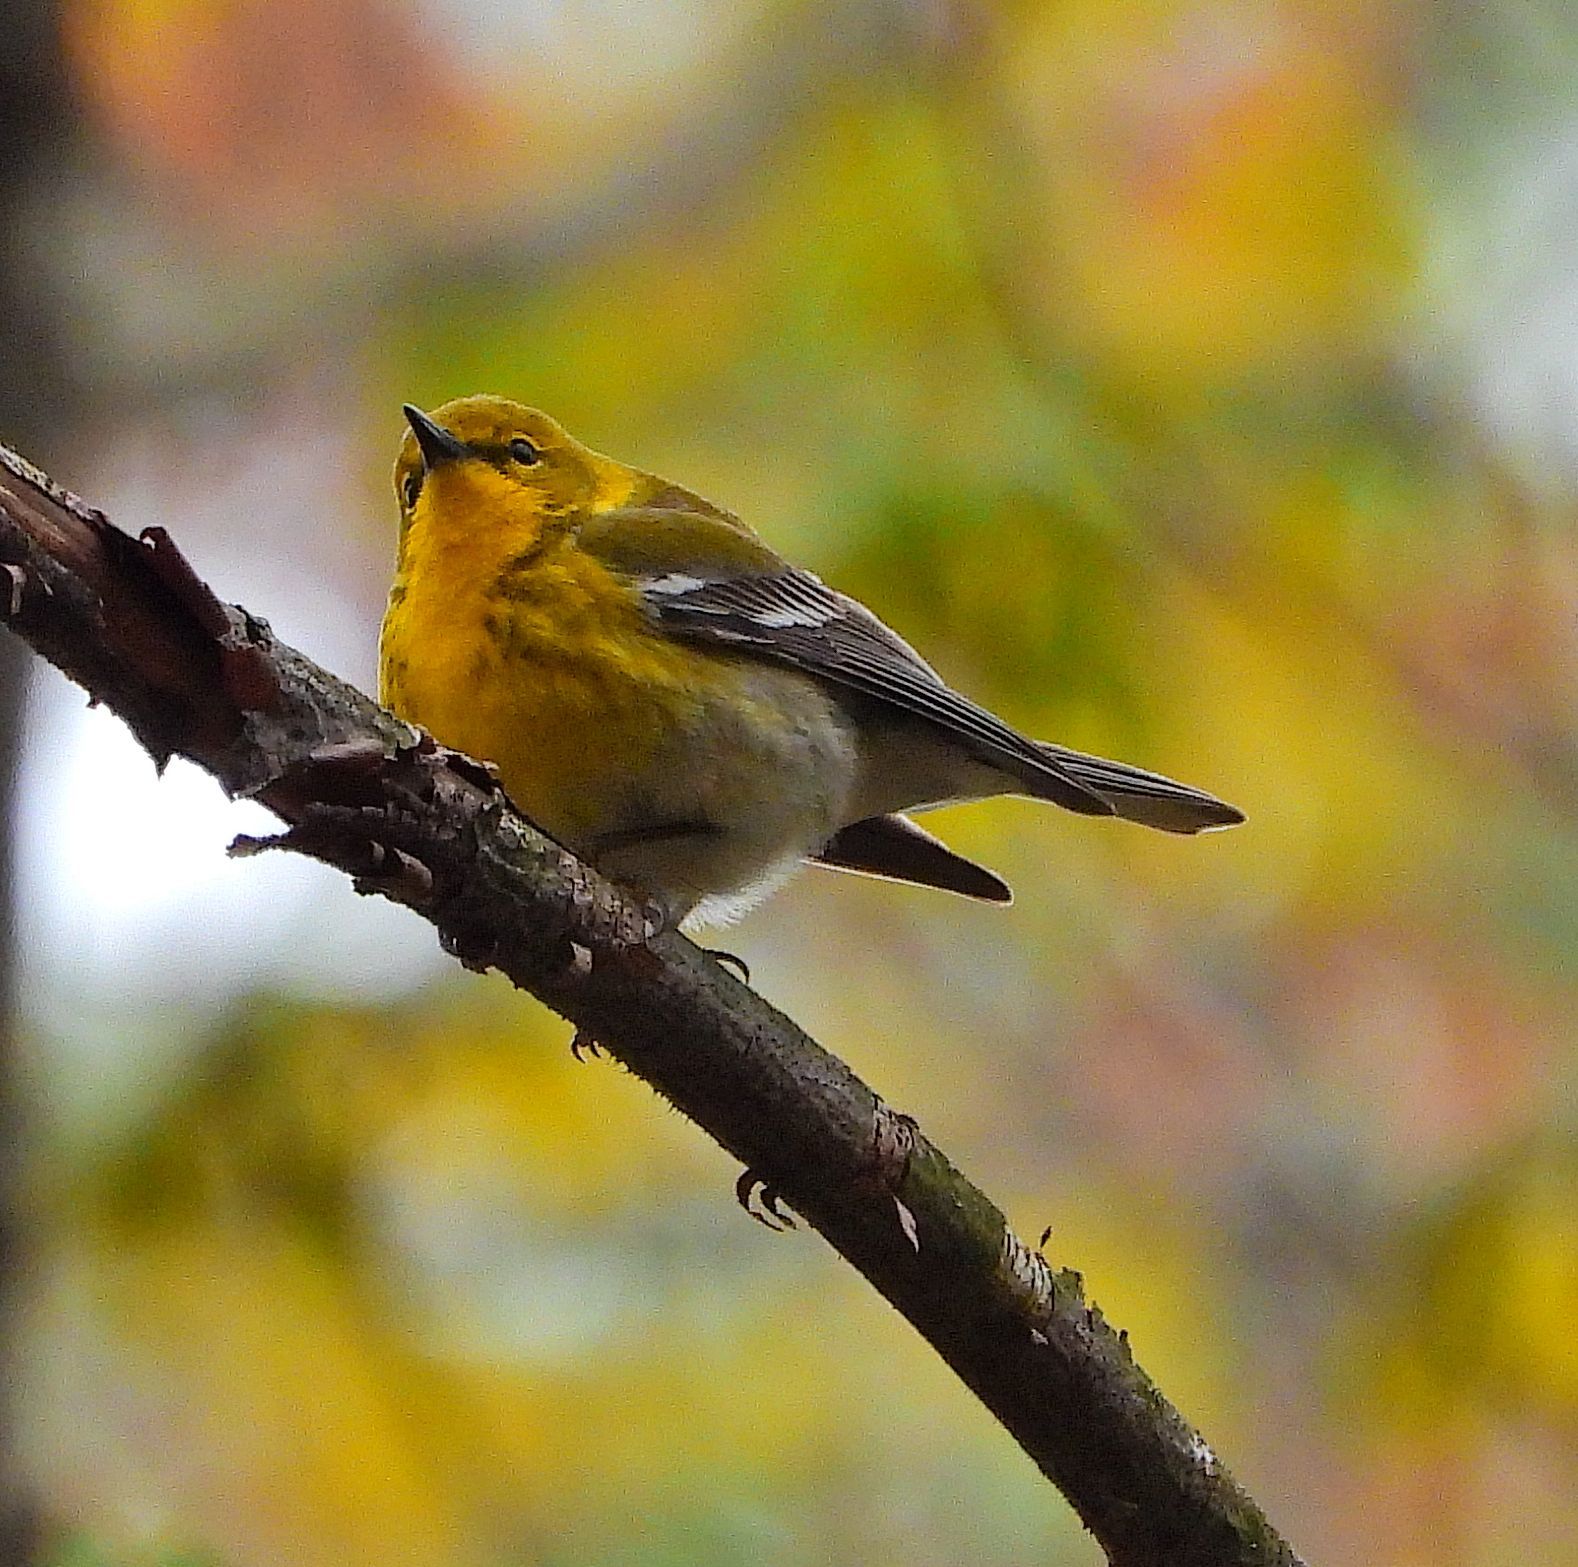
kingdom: Animalia
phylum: Chordata
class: Aves
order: Passeriformes
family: Parulidae
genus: Setophaga
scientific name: Setophaga pinus
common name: Pine warbler
